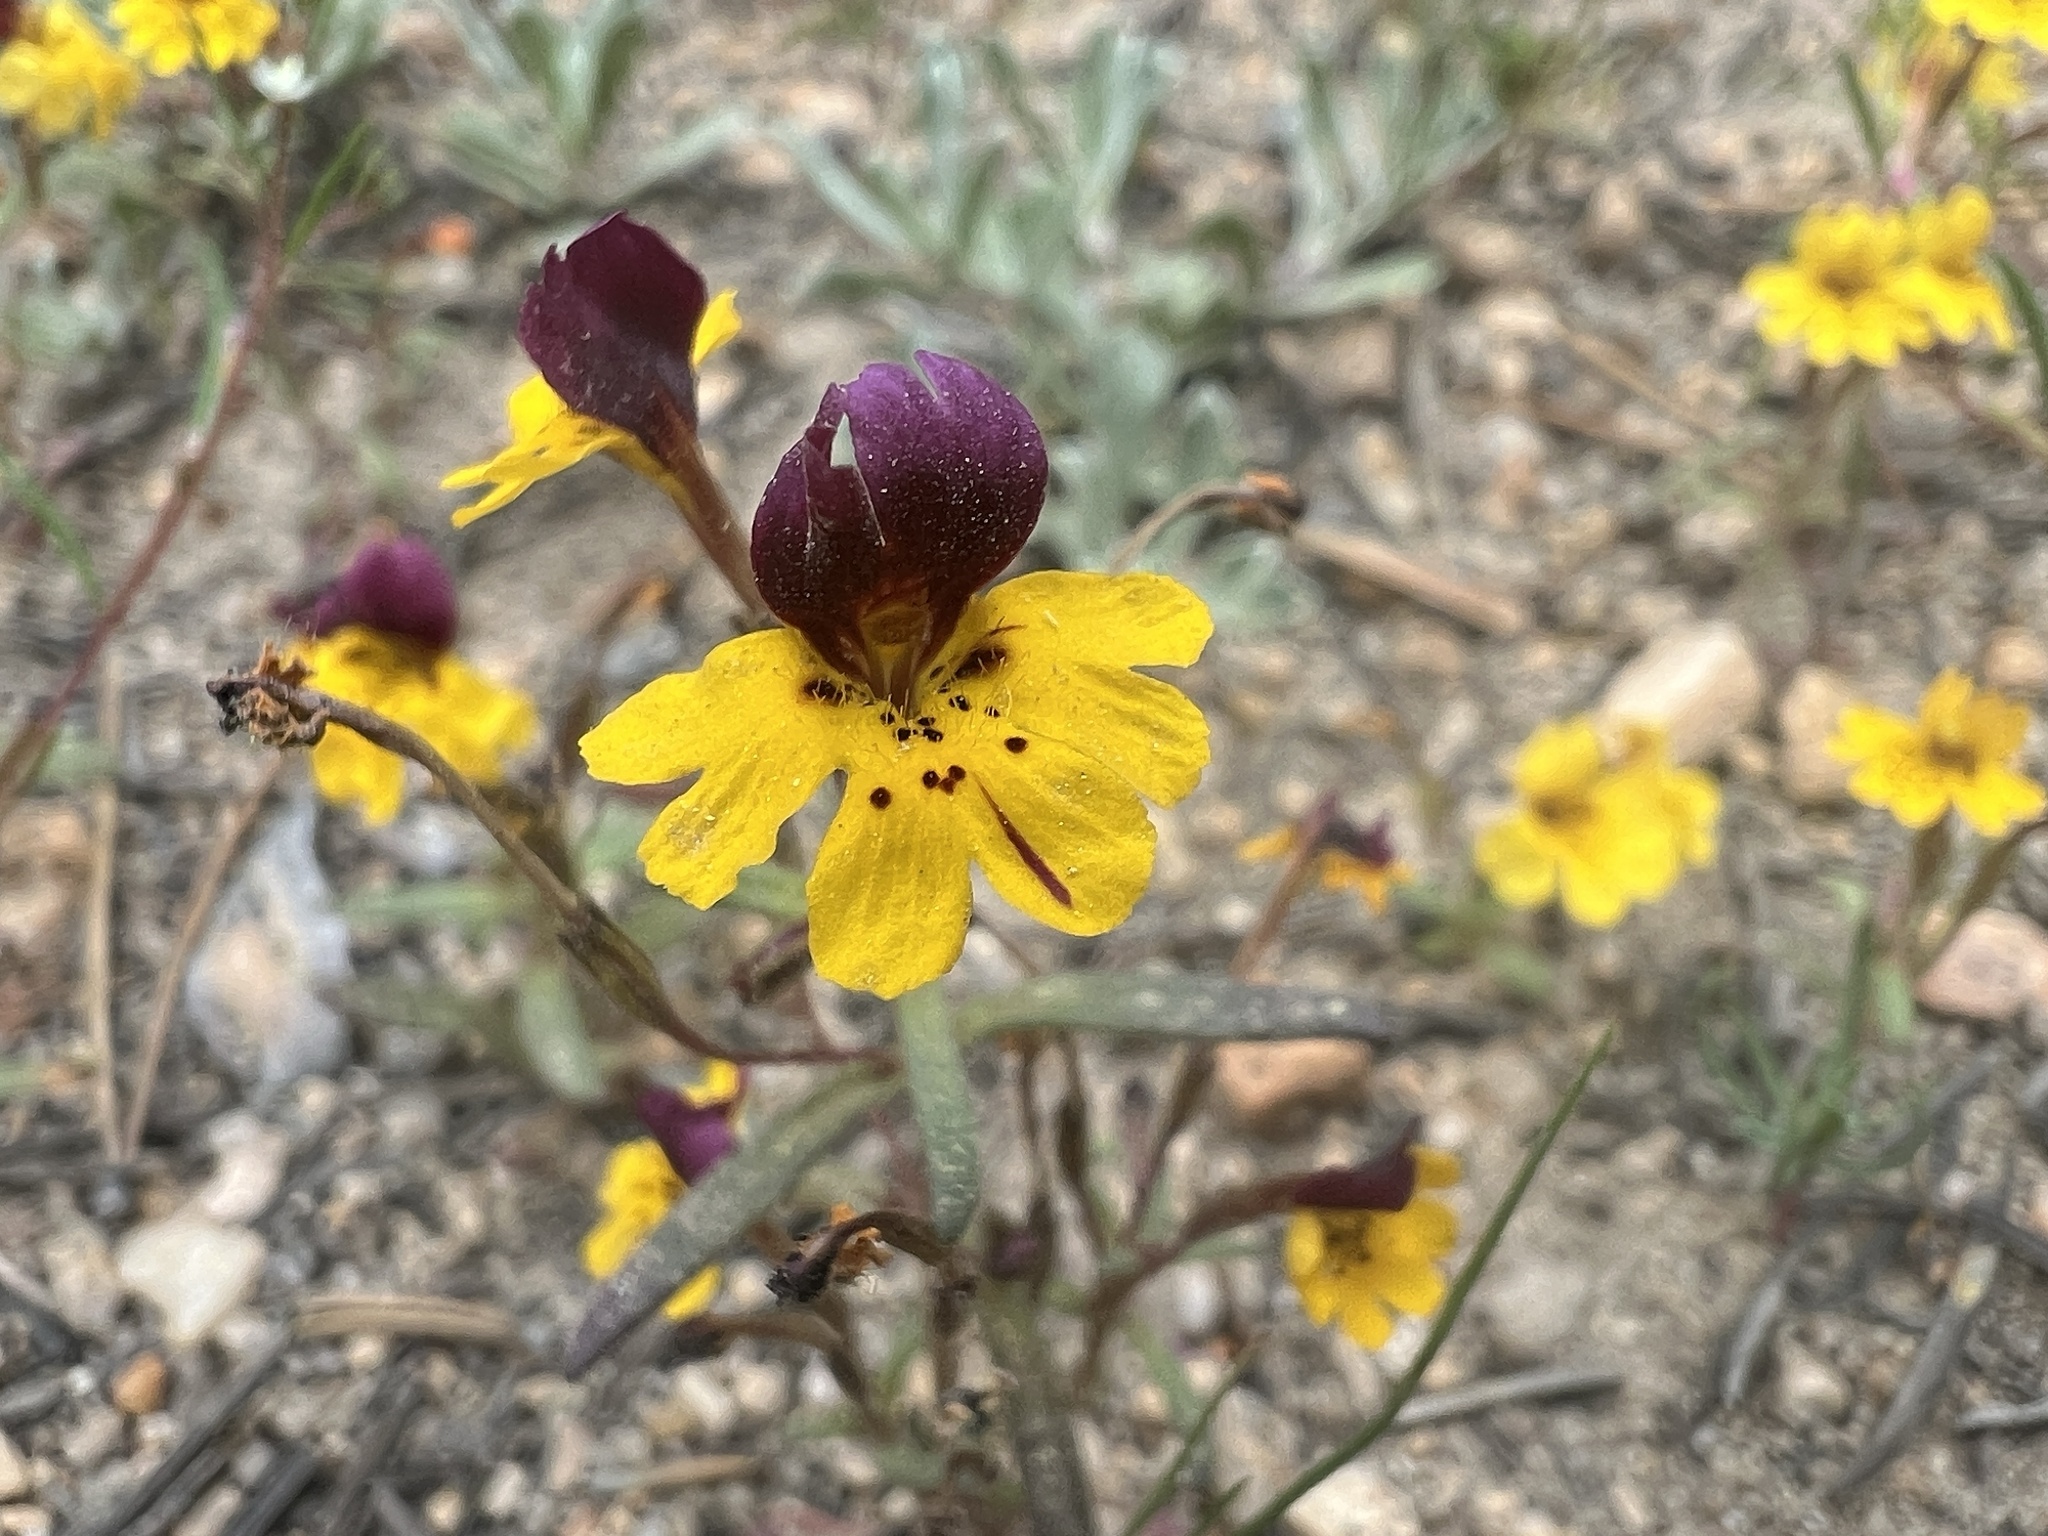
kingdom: Plantae
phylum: Tracheophyta
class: Magnoliopsida
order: Lamiales
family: Phrymaceae
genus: Erythranthe
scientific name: Erythranthe barbata
